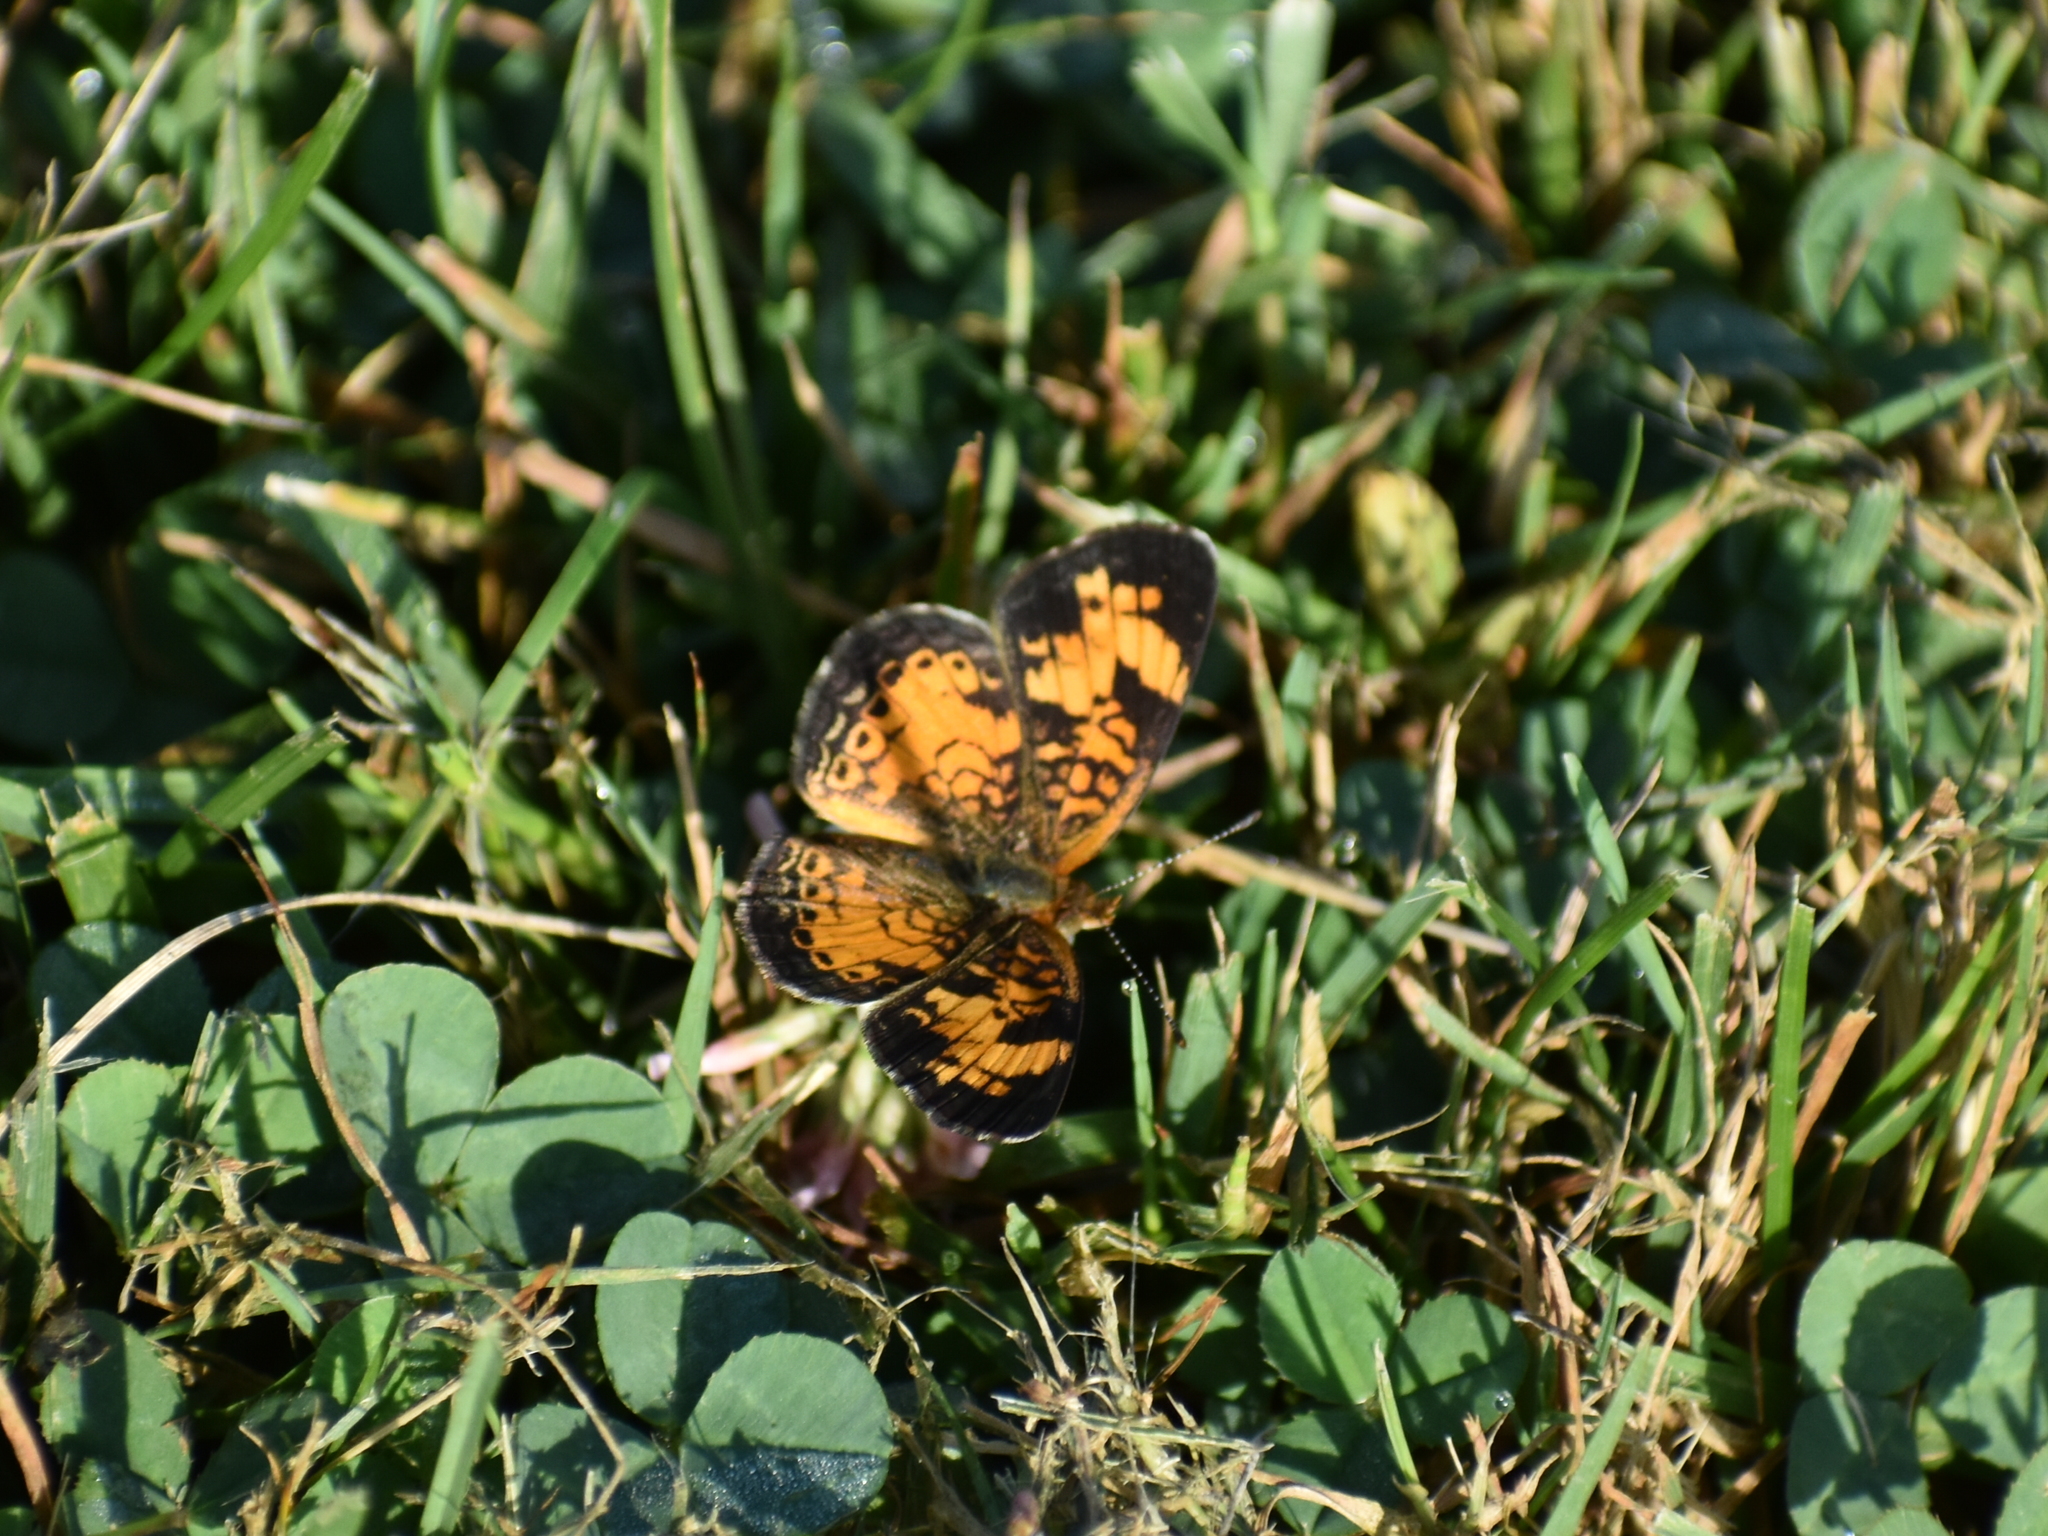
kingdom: Animalia
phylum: Arthropoda
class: Insecta
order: Lepidoptera
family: Nymphalidae
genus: Phyciodes
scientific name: Phyciodes tharos
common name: Pearl crescent
